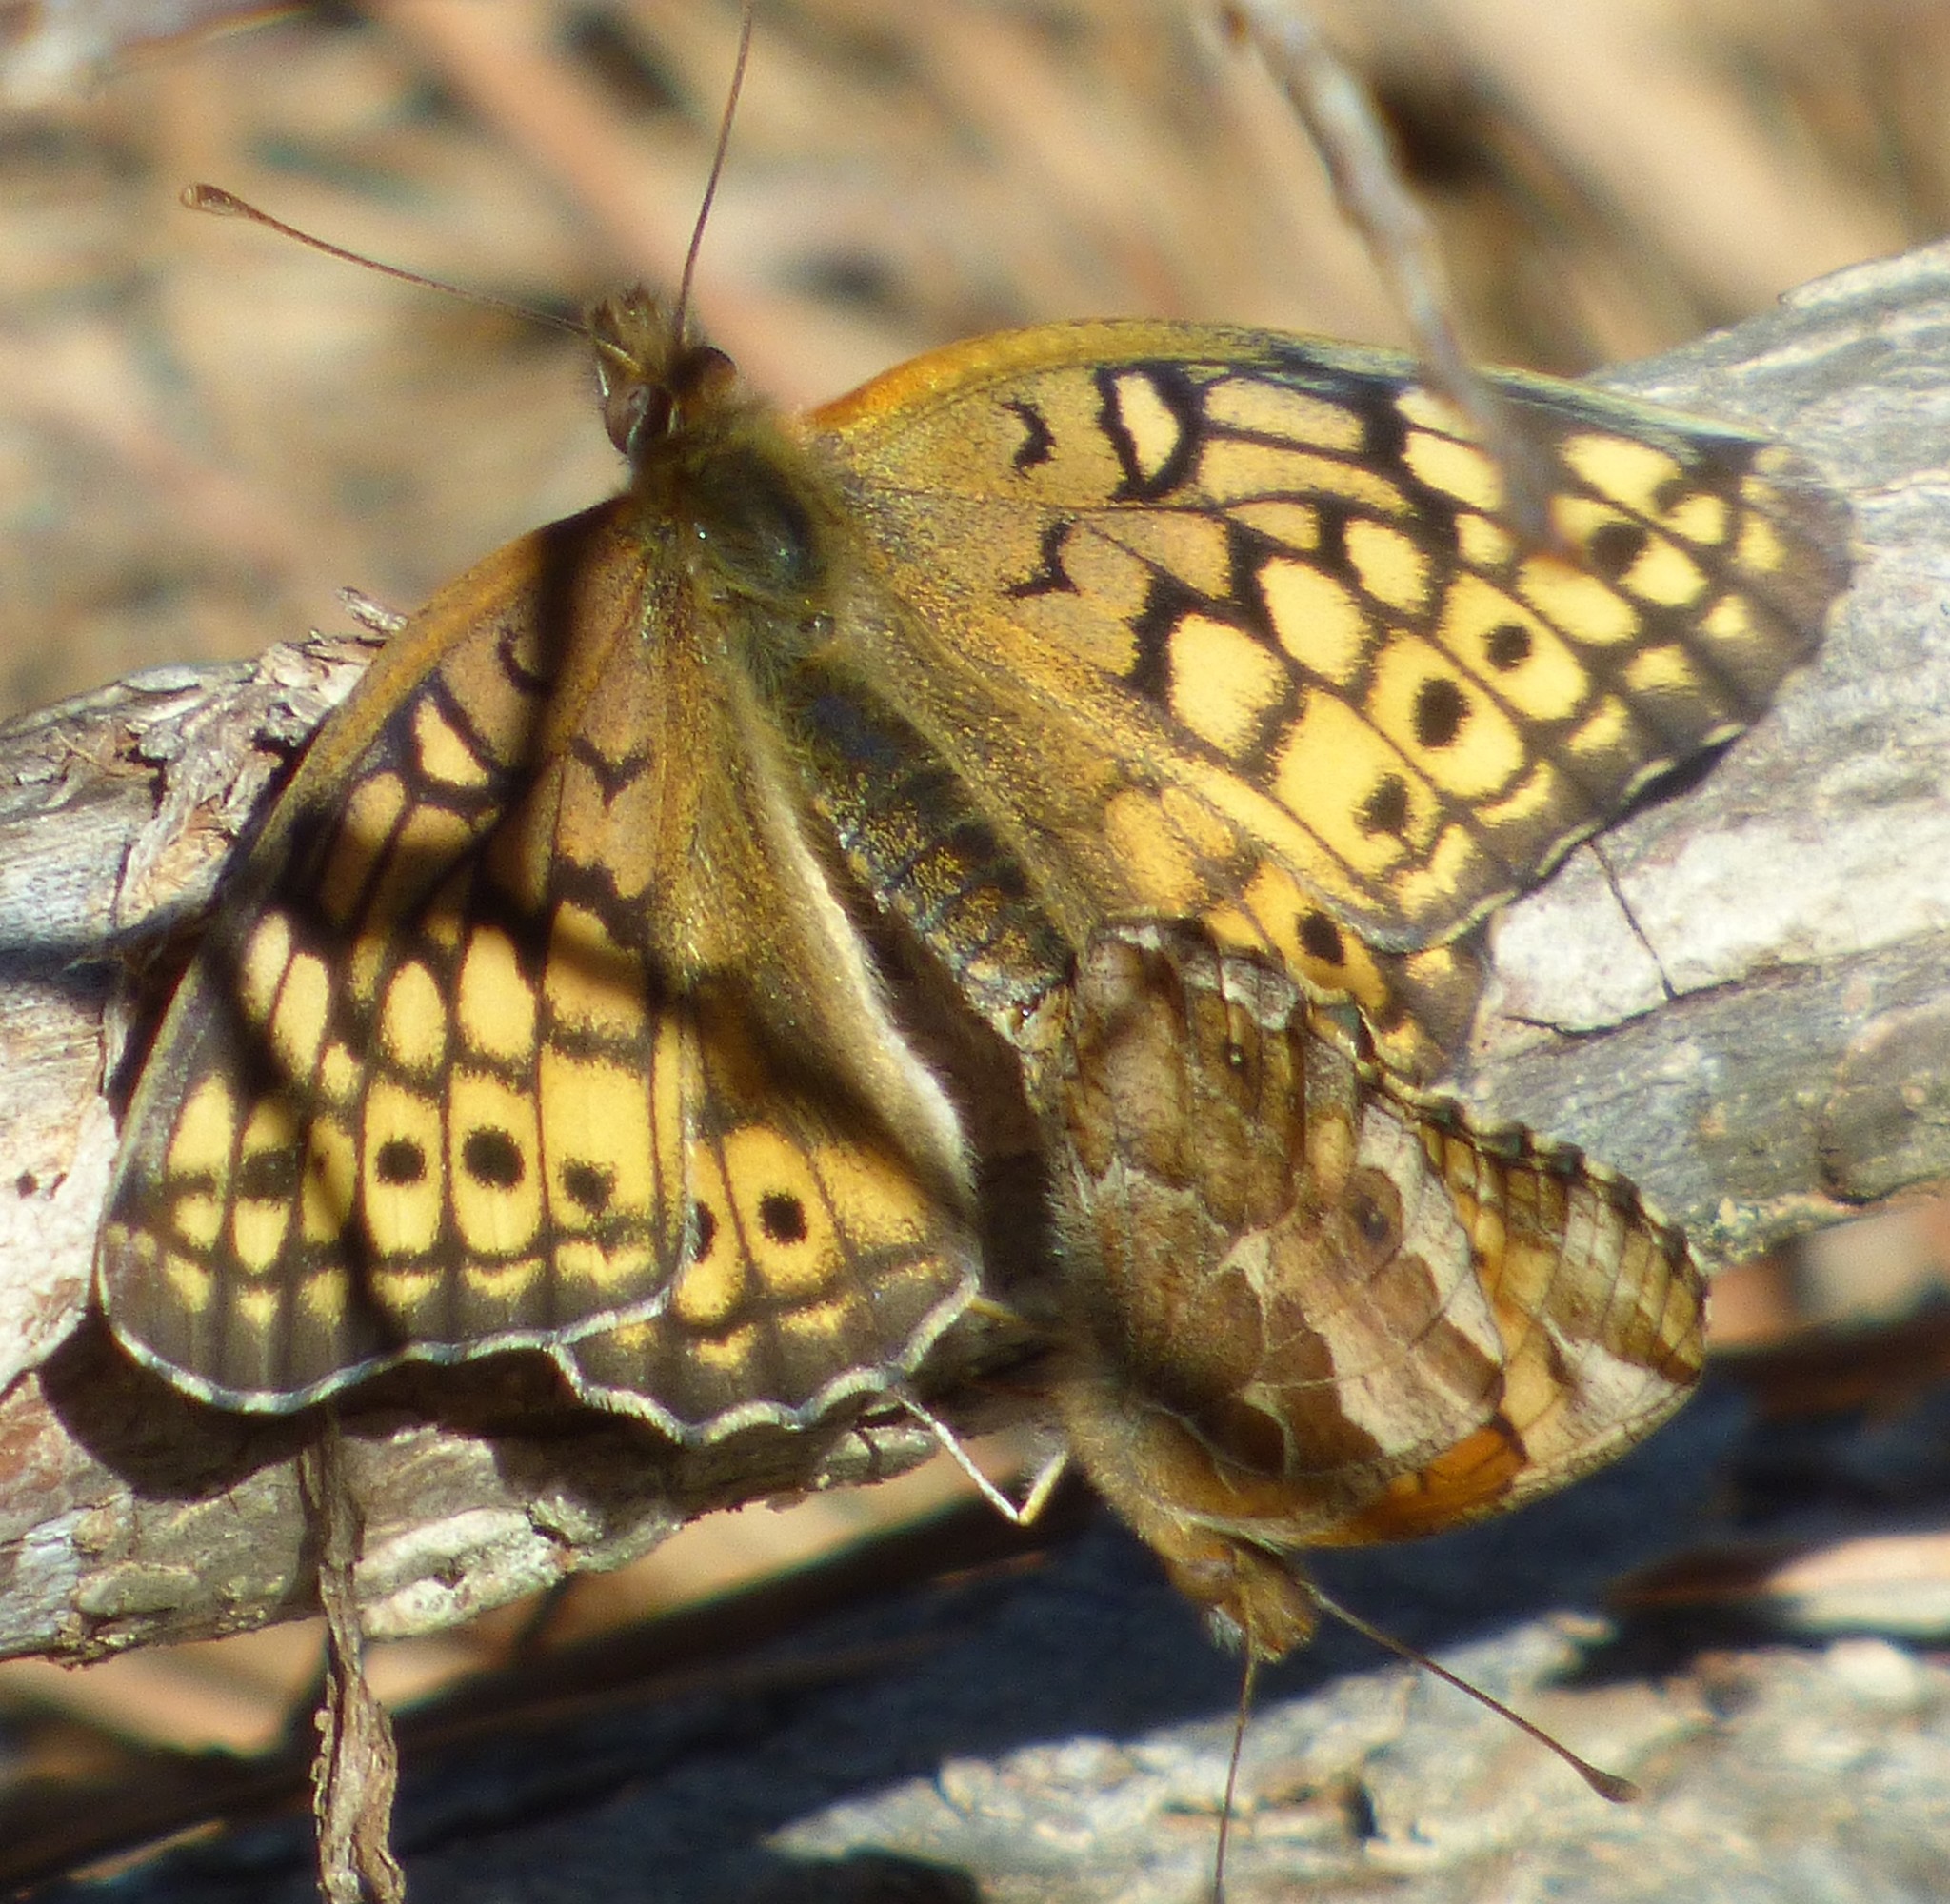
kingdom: Animalia
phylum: Arthropoda
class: Insecta
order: Lepidoptera
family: Nymphalidae
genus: Euptoieta
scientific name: Euptoieta claudia
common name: Variegated fritillary
